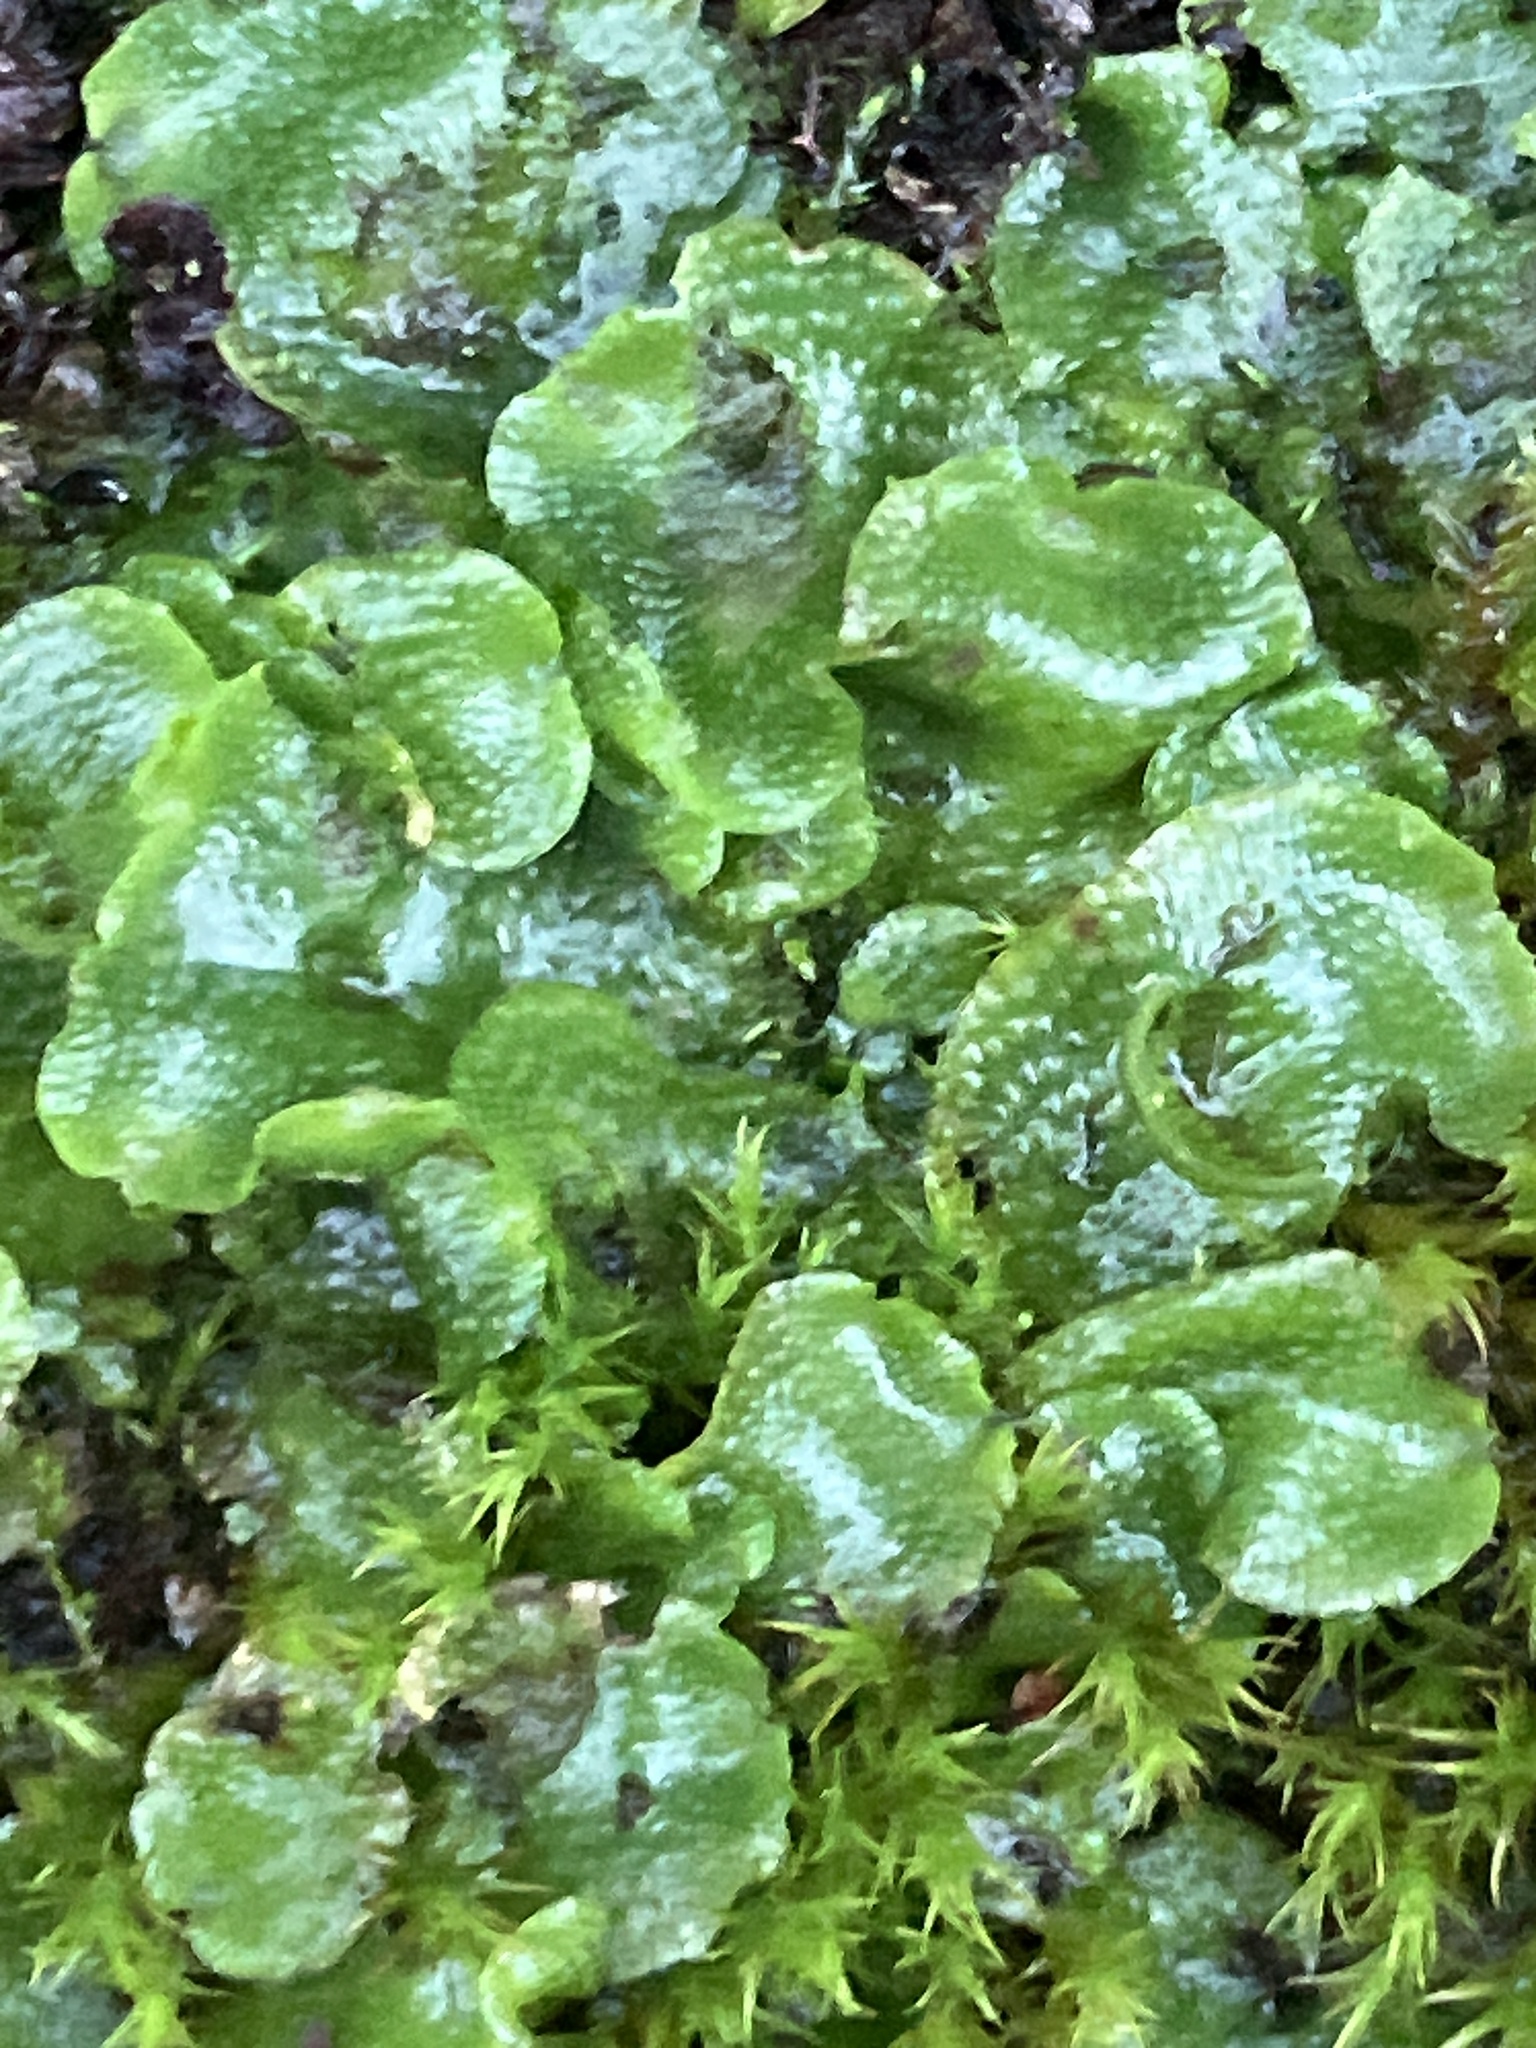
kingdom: Plantae
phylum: Marchantiophyta
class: Marchantiopsida
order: Lunulariales
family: Lunulariaceae
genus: Lunularia
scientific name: Lunularia cruciata
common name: Crescent-cup liverwort
